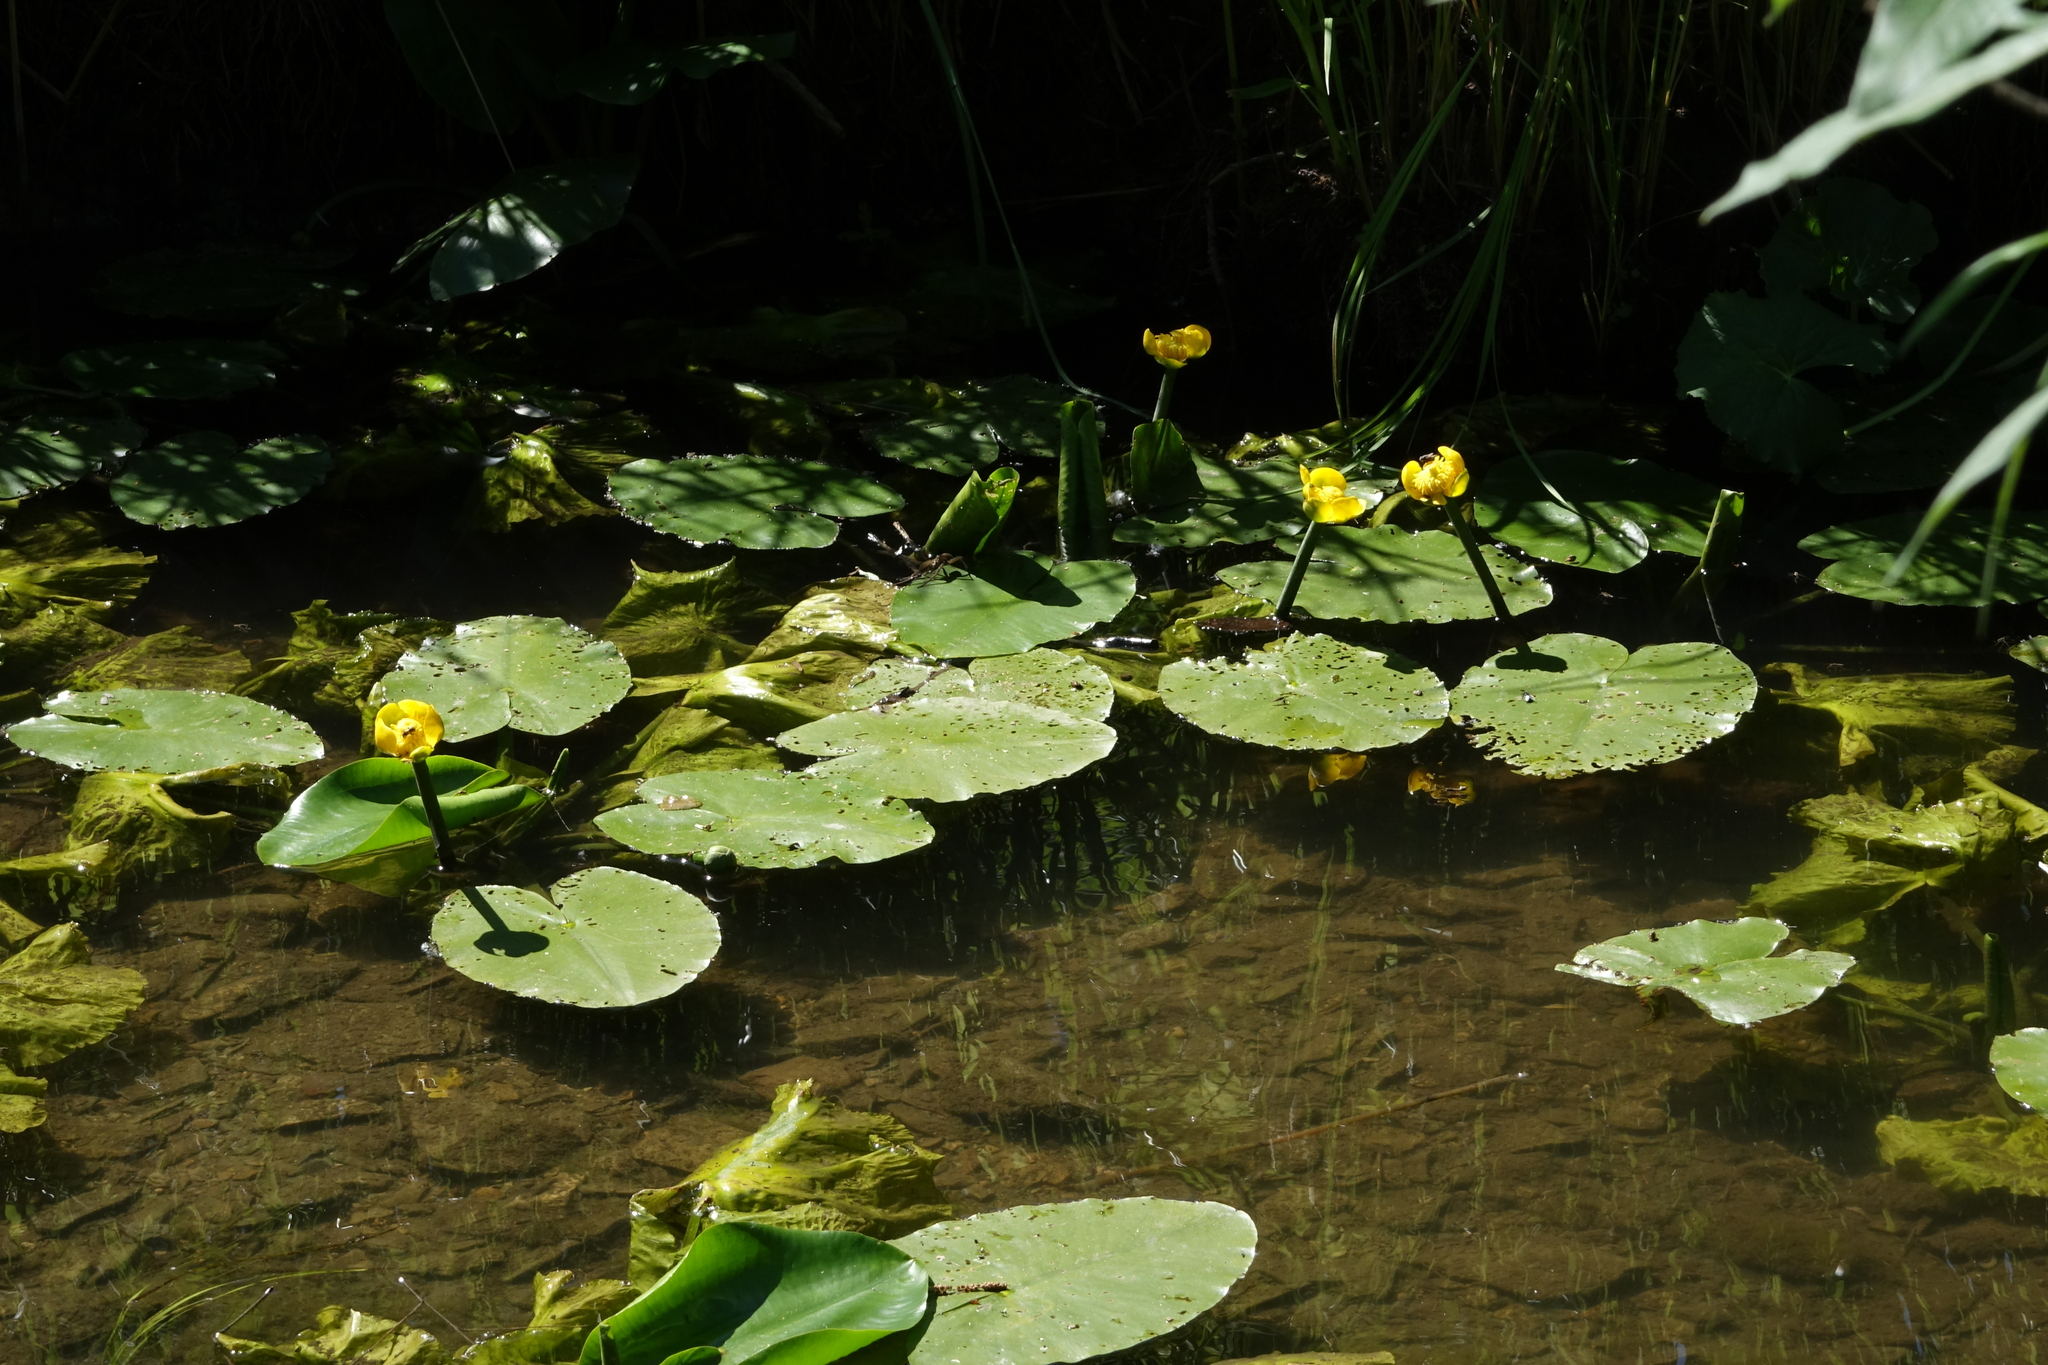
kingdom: Plantae
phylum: Tracheophyta
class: Magnoliopsida
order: Nymphaeales
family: Nymphaeaceae
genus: Nuphar
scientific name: Nuphar lutea
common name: Yellow water-lily
